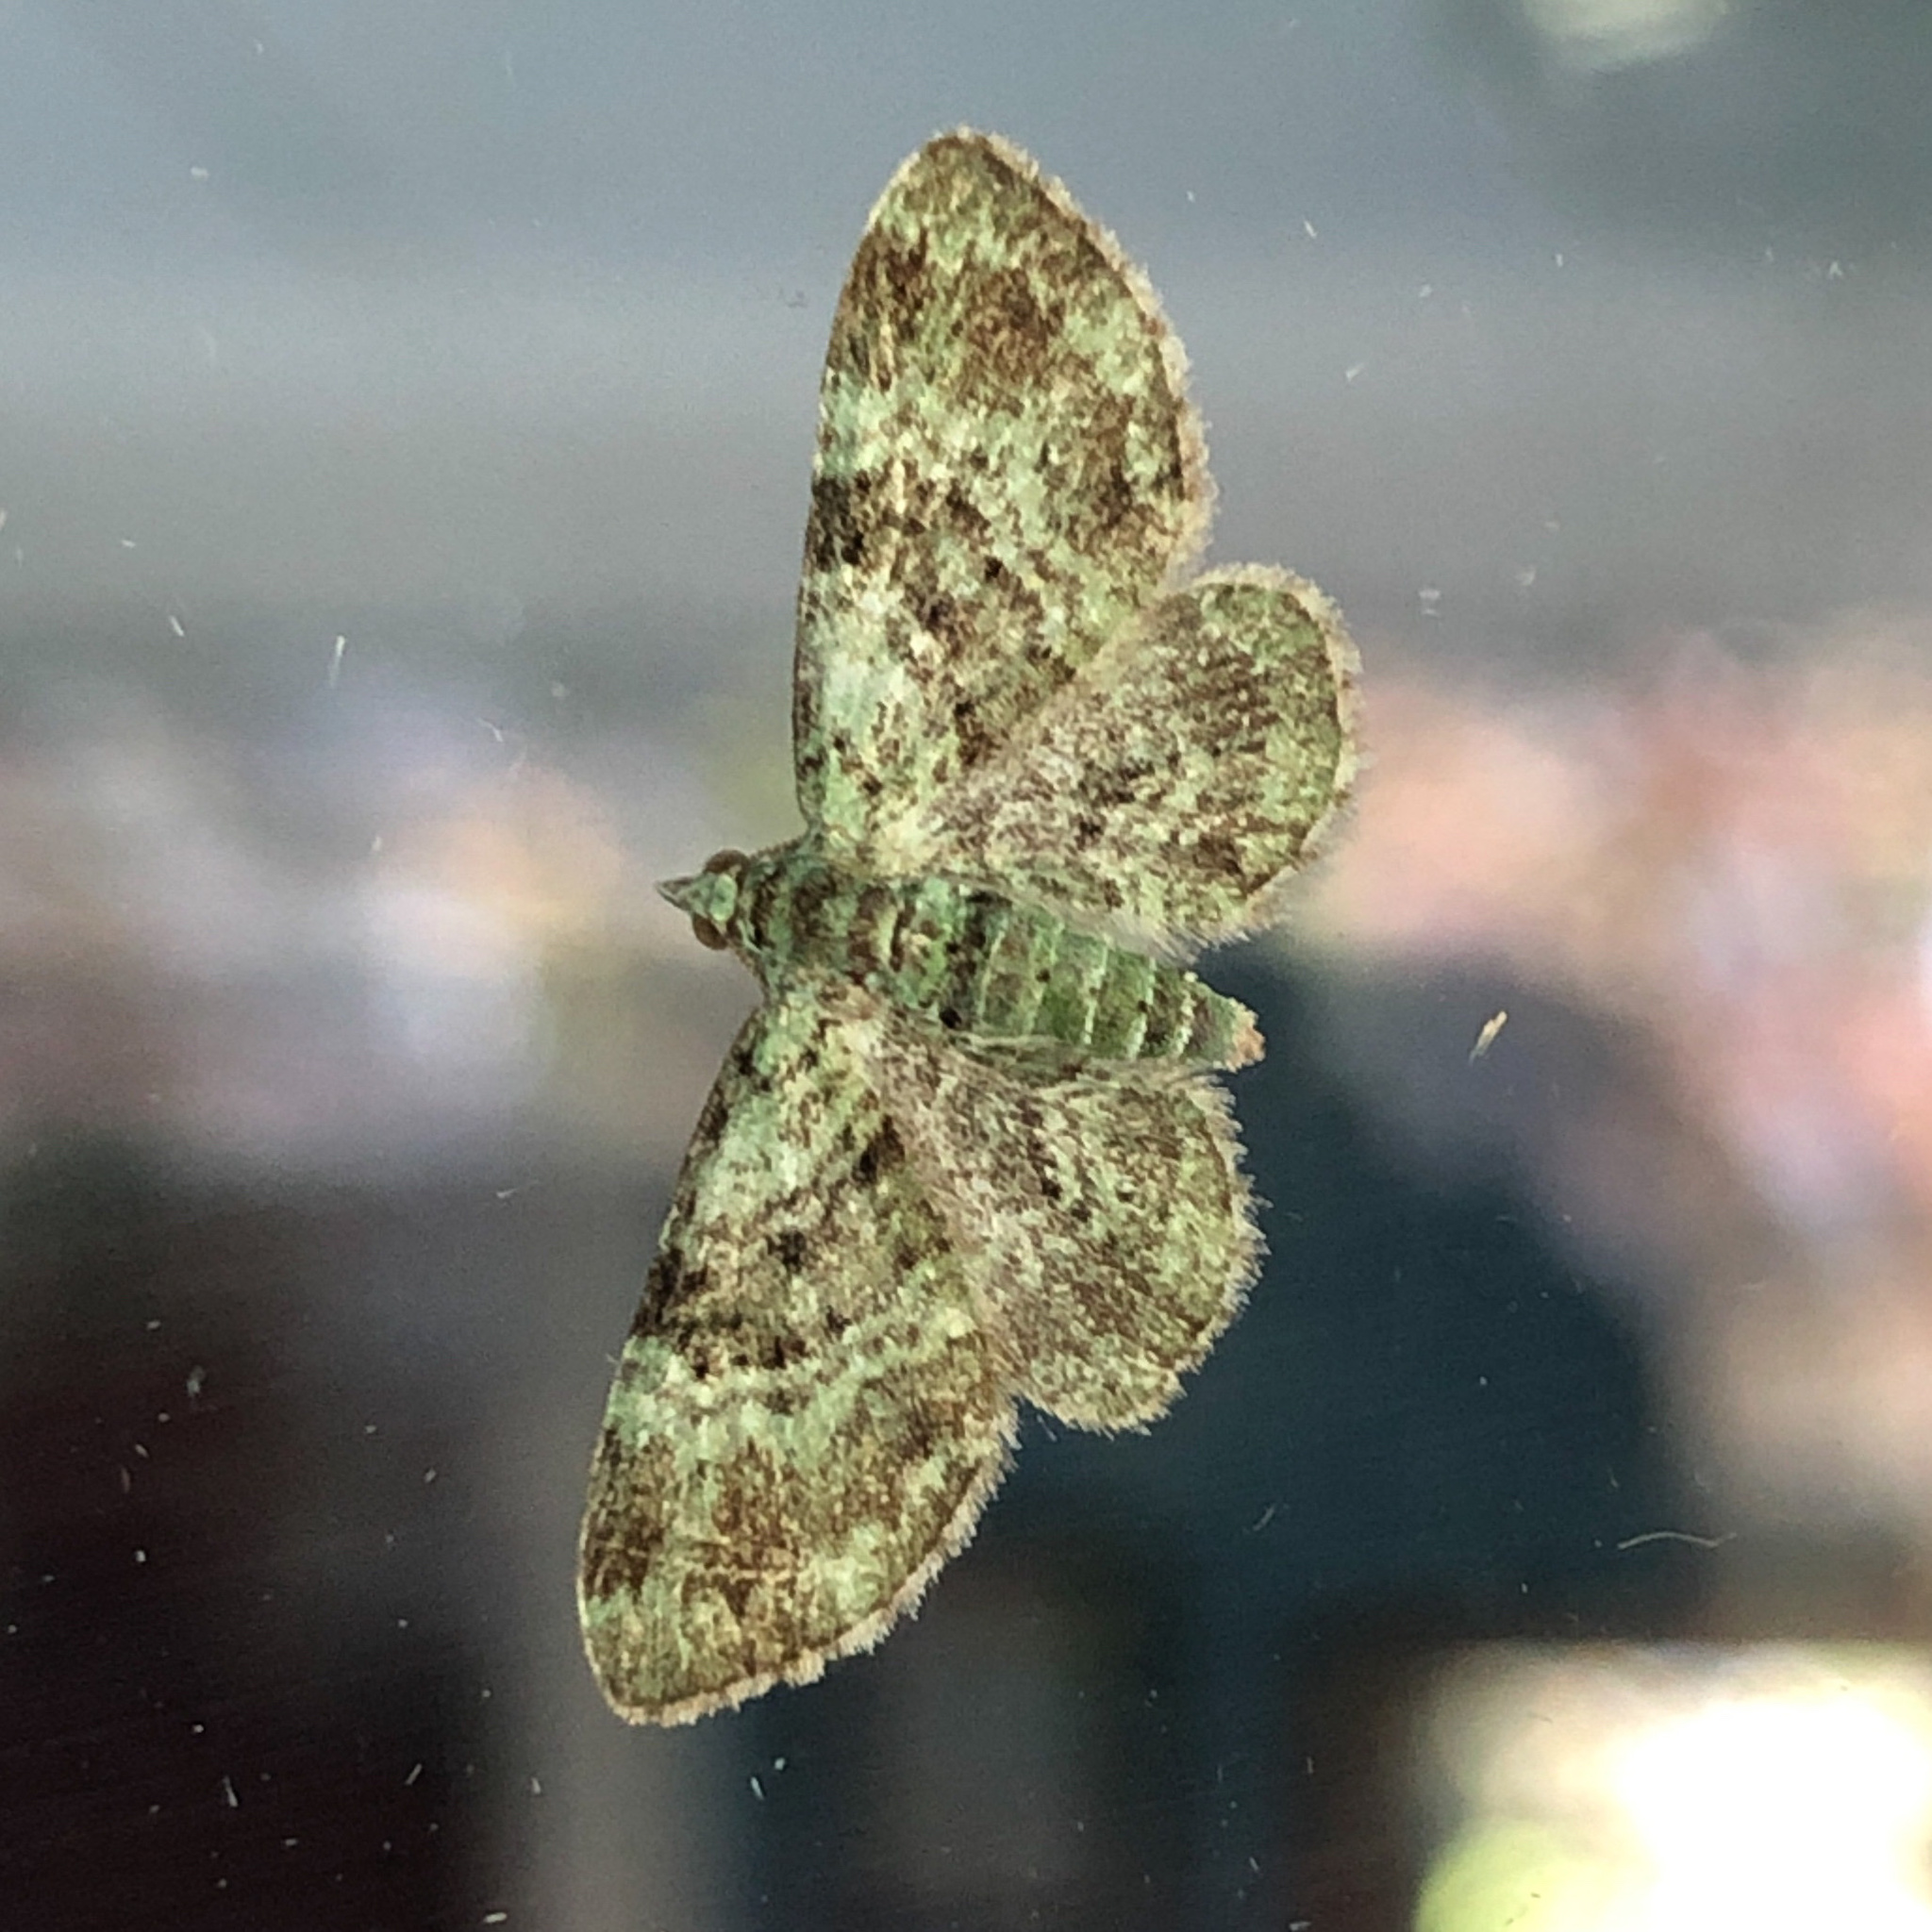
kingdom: Animalia
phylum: Arthropoda
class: Insecta
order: Lepidoptera
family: Geometridae
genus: Pasiphila
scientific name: Pasiphila rectangulata
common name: Green pug
